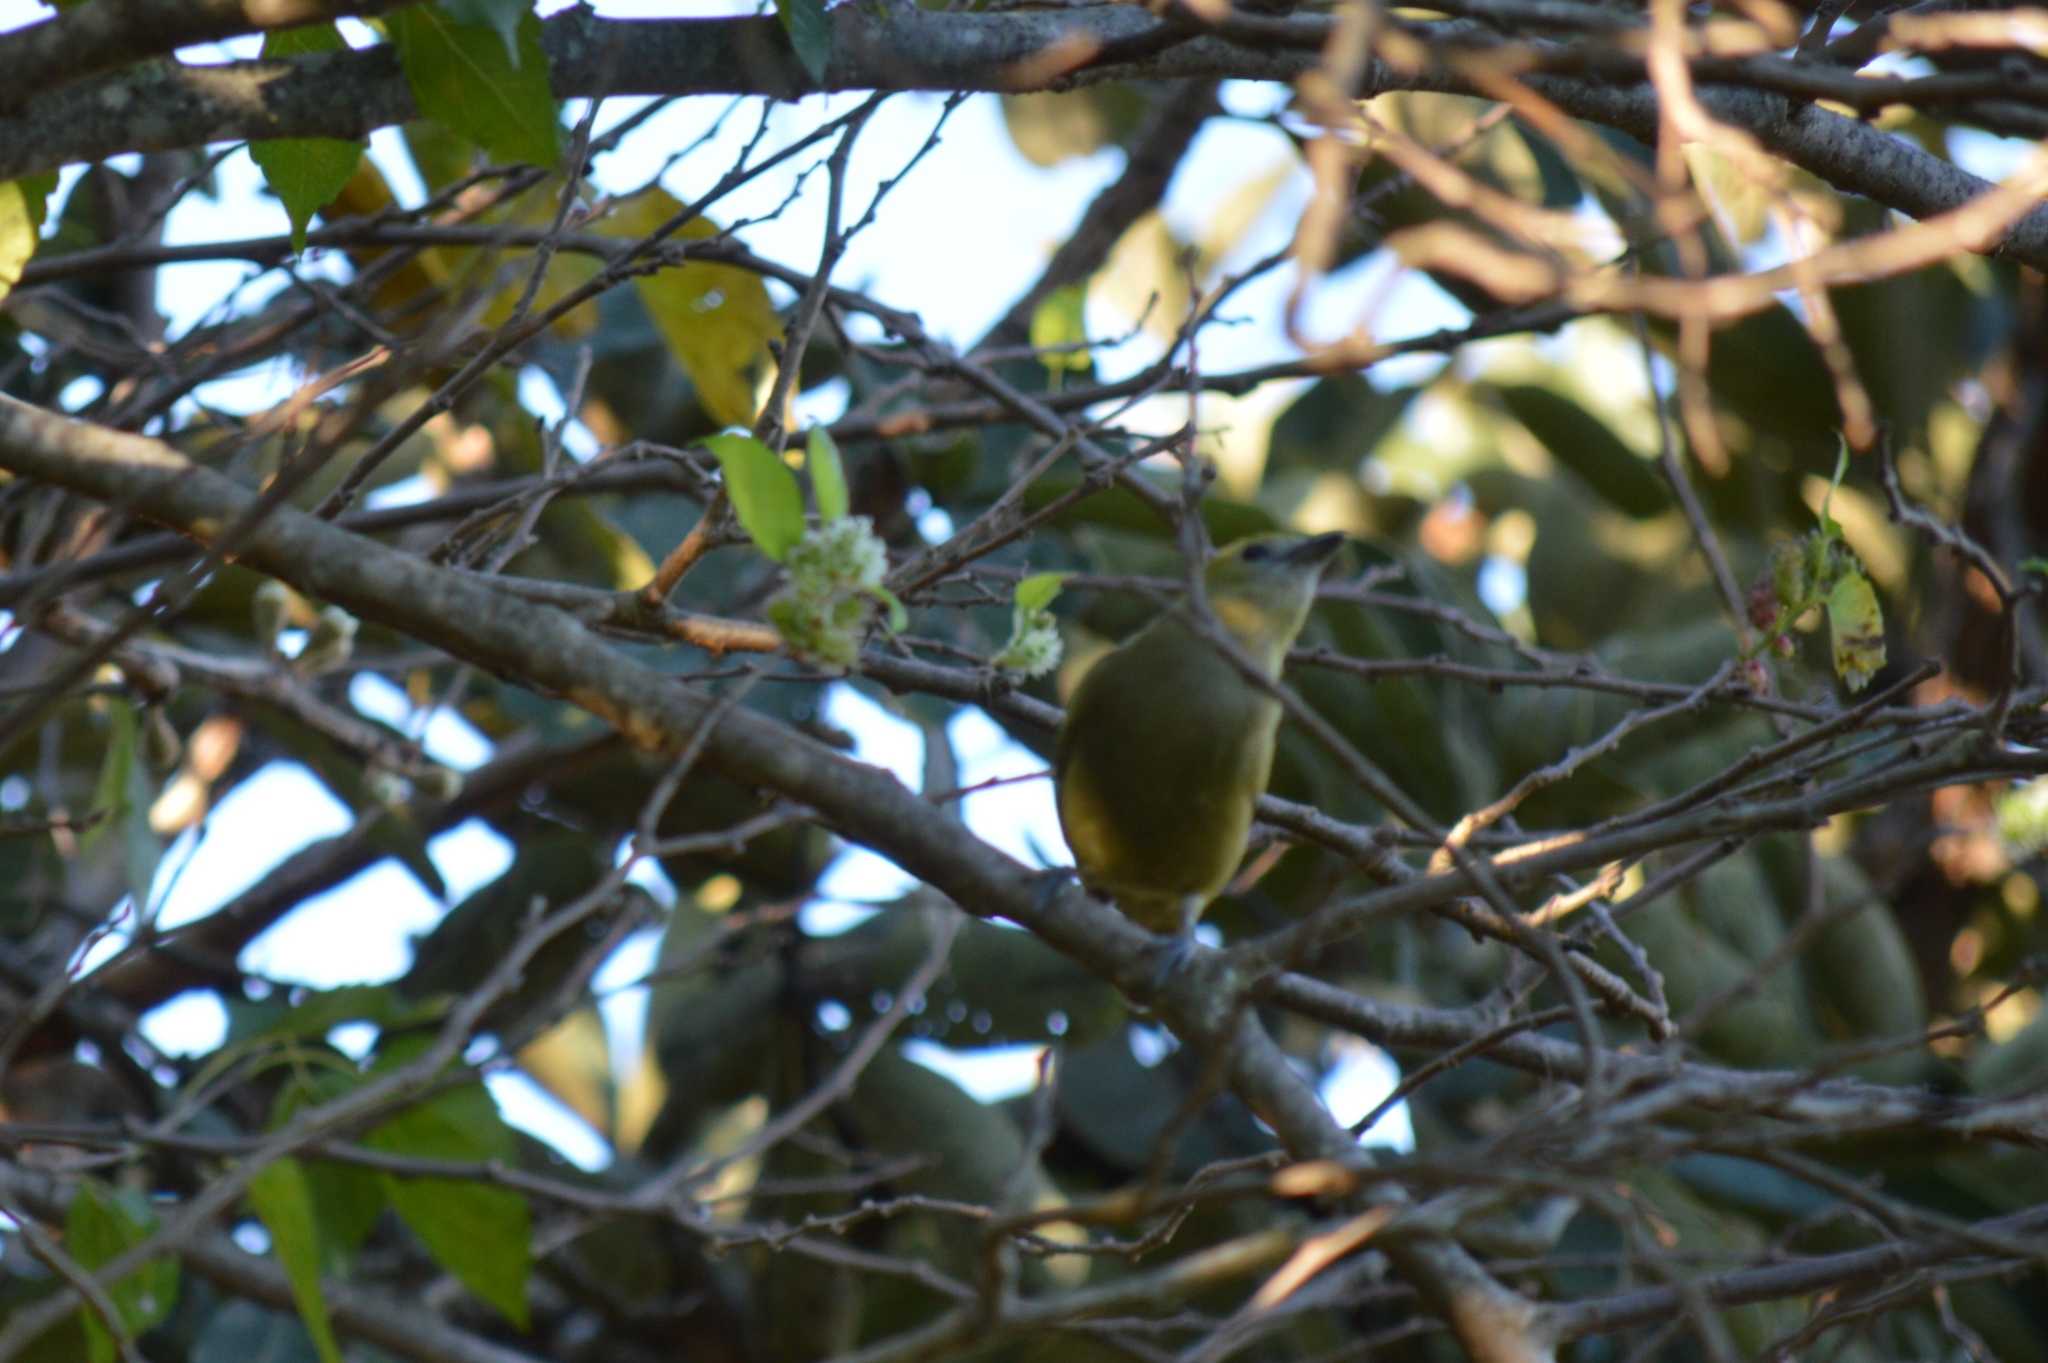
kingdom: Animalia
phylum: Chordata
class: Aves
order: Passeriformes
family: Thraupidae
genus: Thraupis
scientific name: Thraupis palmarum
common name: Palm tanager
